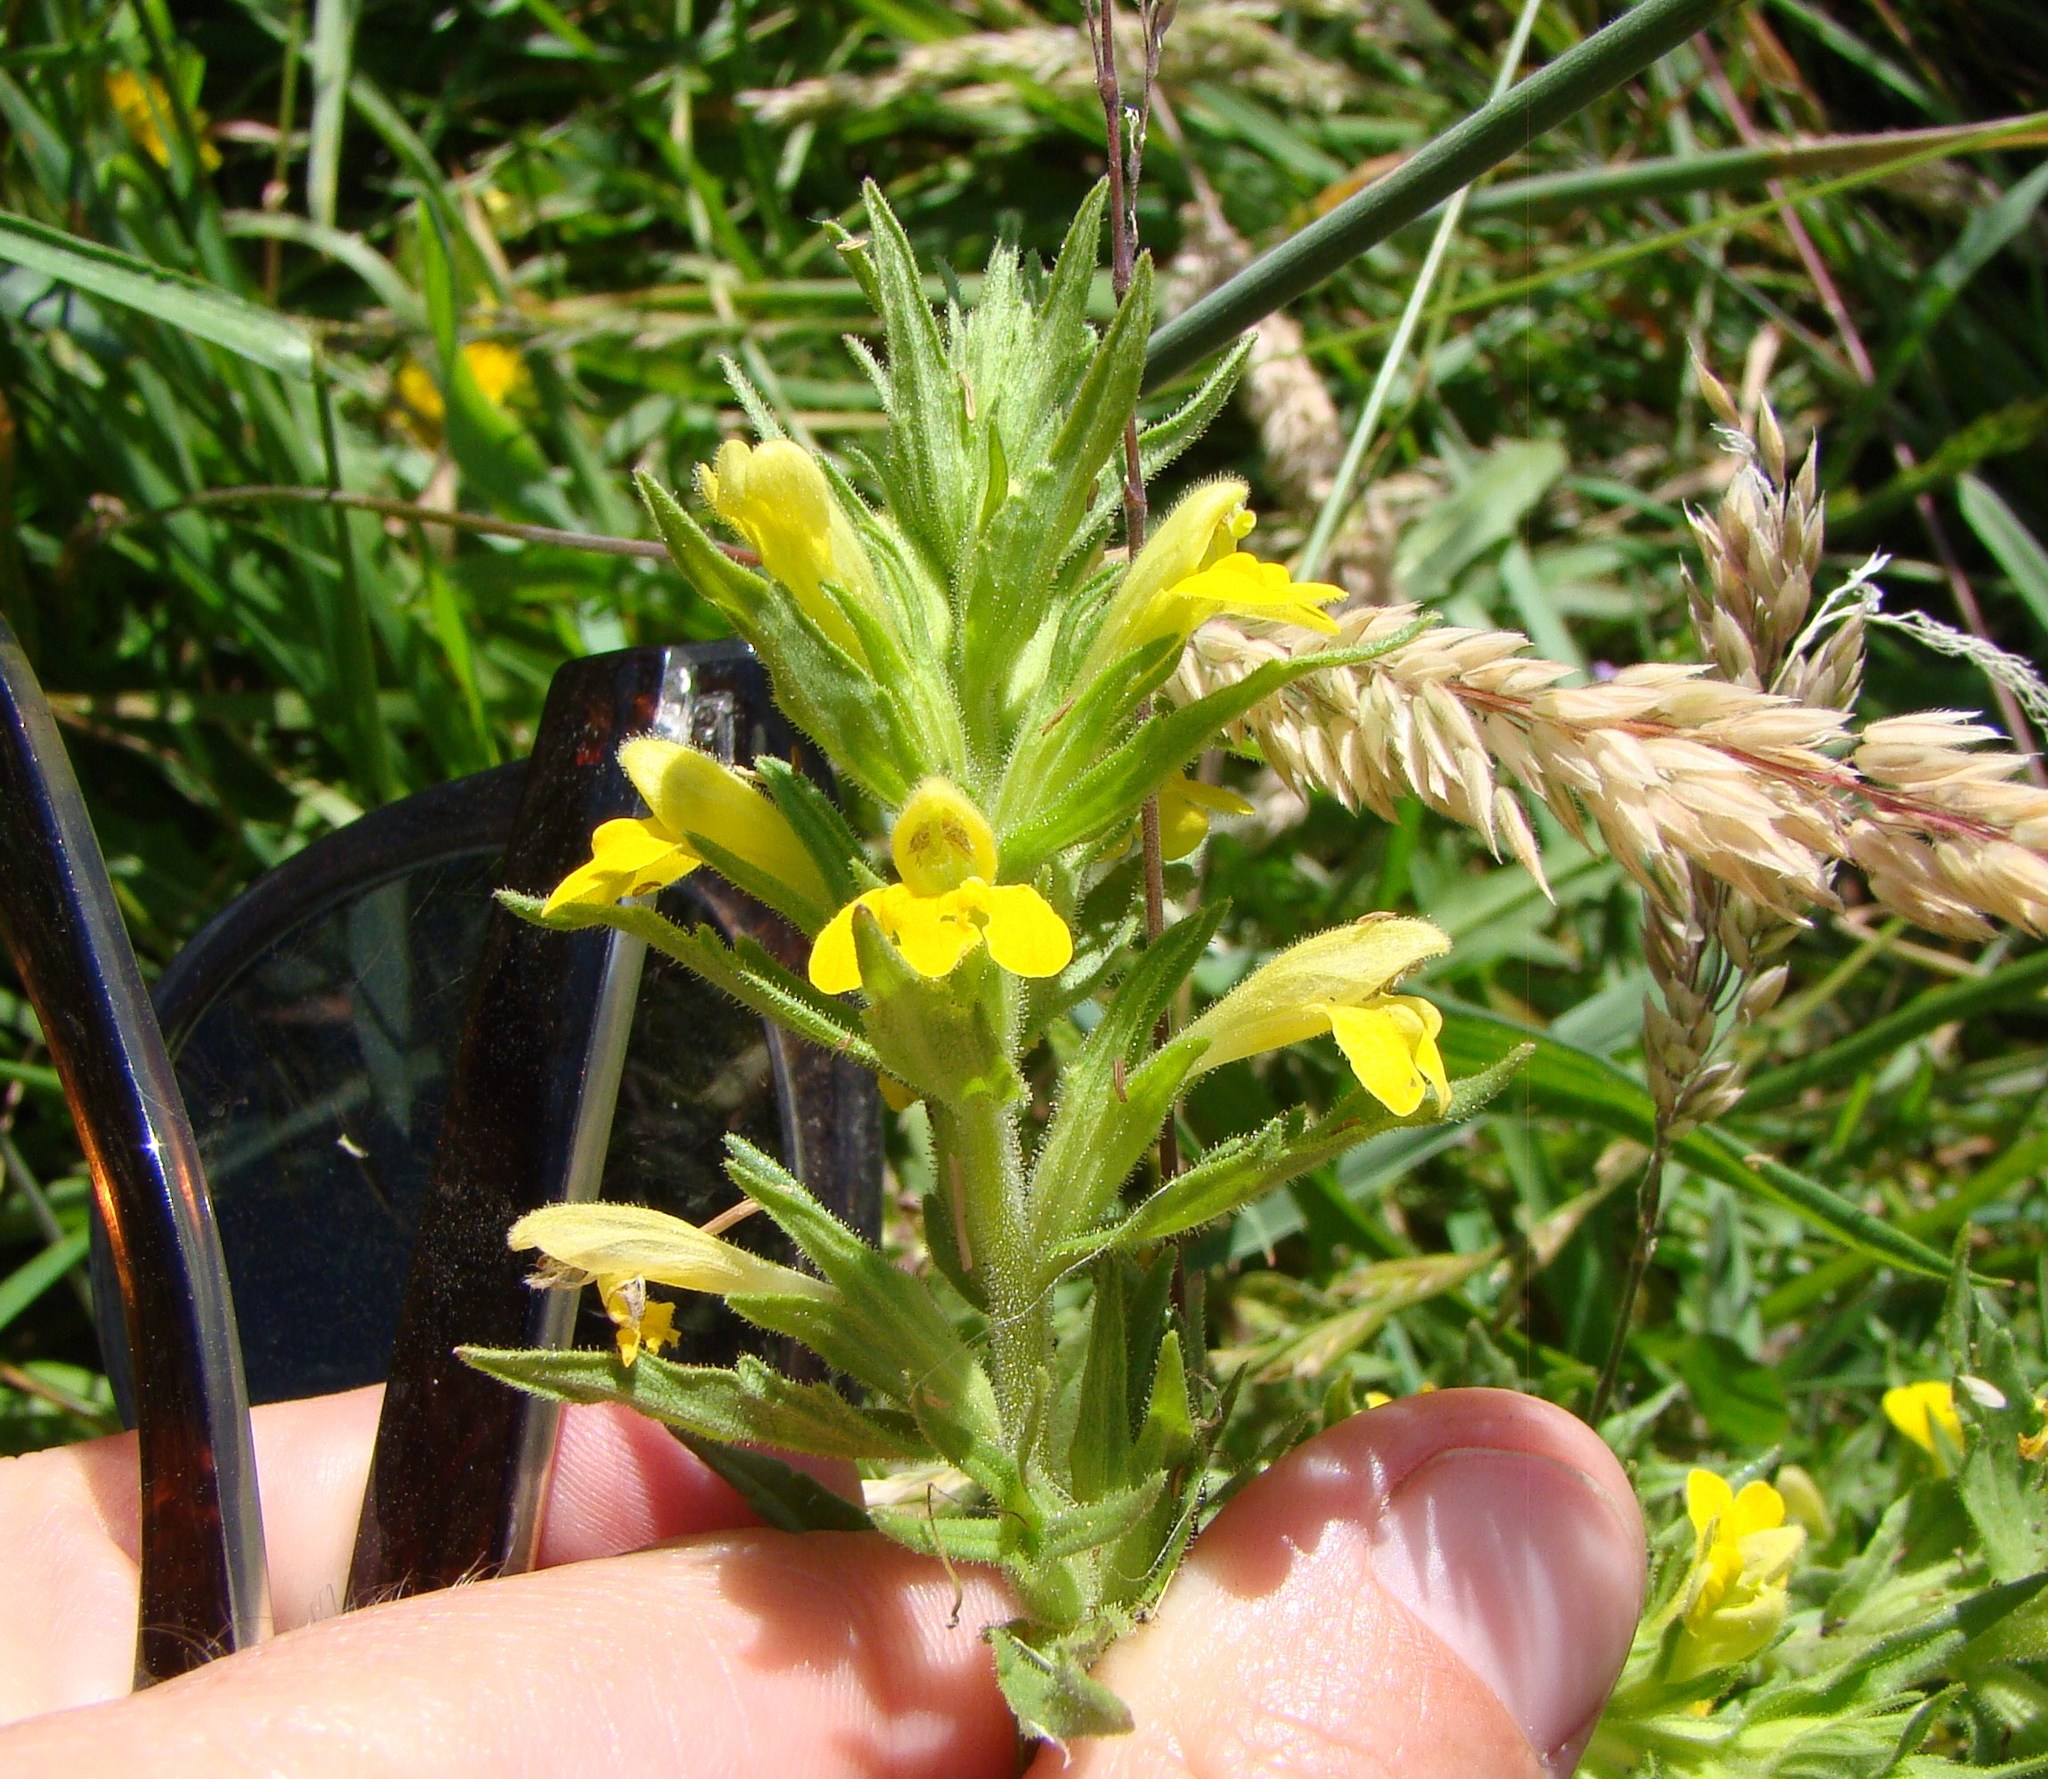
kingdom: Plantae
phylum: Tracheophyta
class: Magnoliopsida
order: Lamiales
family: Orobanchaceae
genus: Bellardia
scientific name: Bellardia viscosa
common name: Sticky parentucellia
